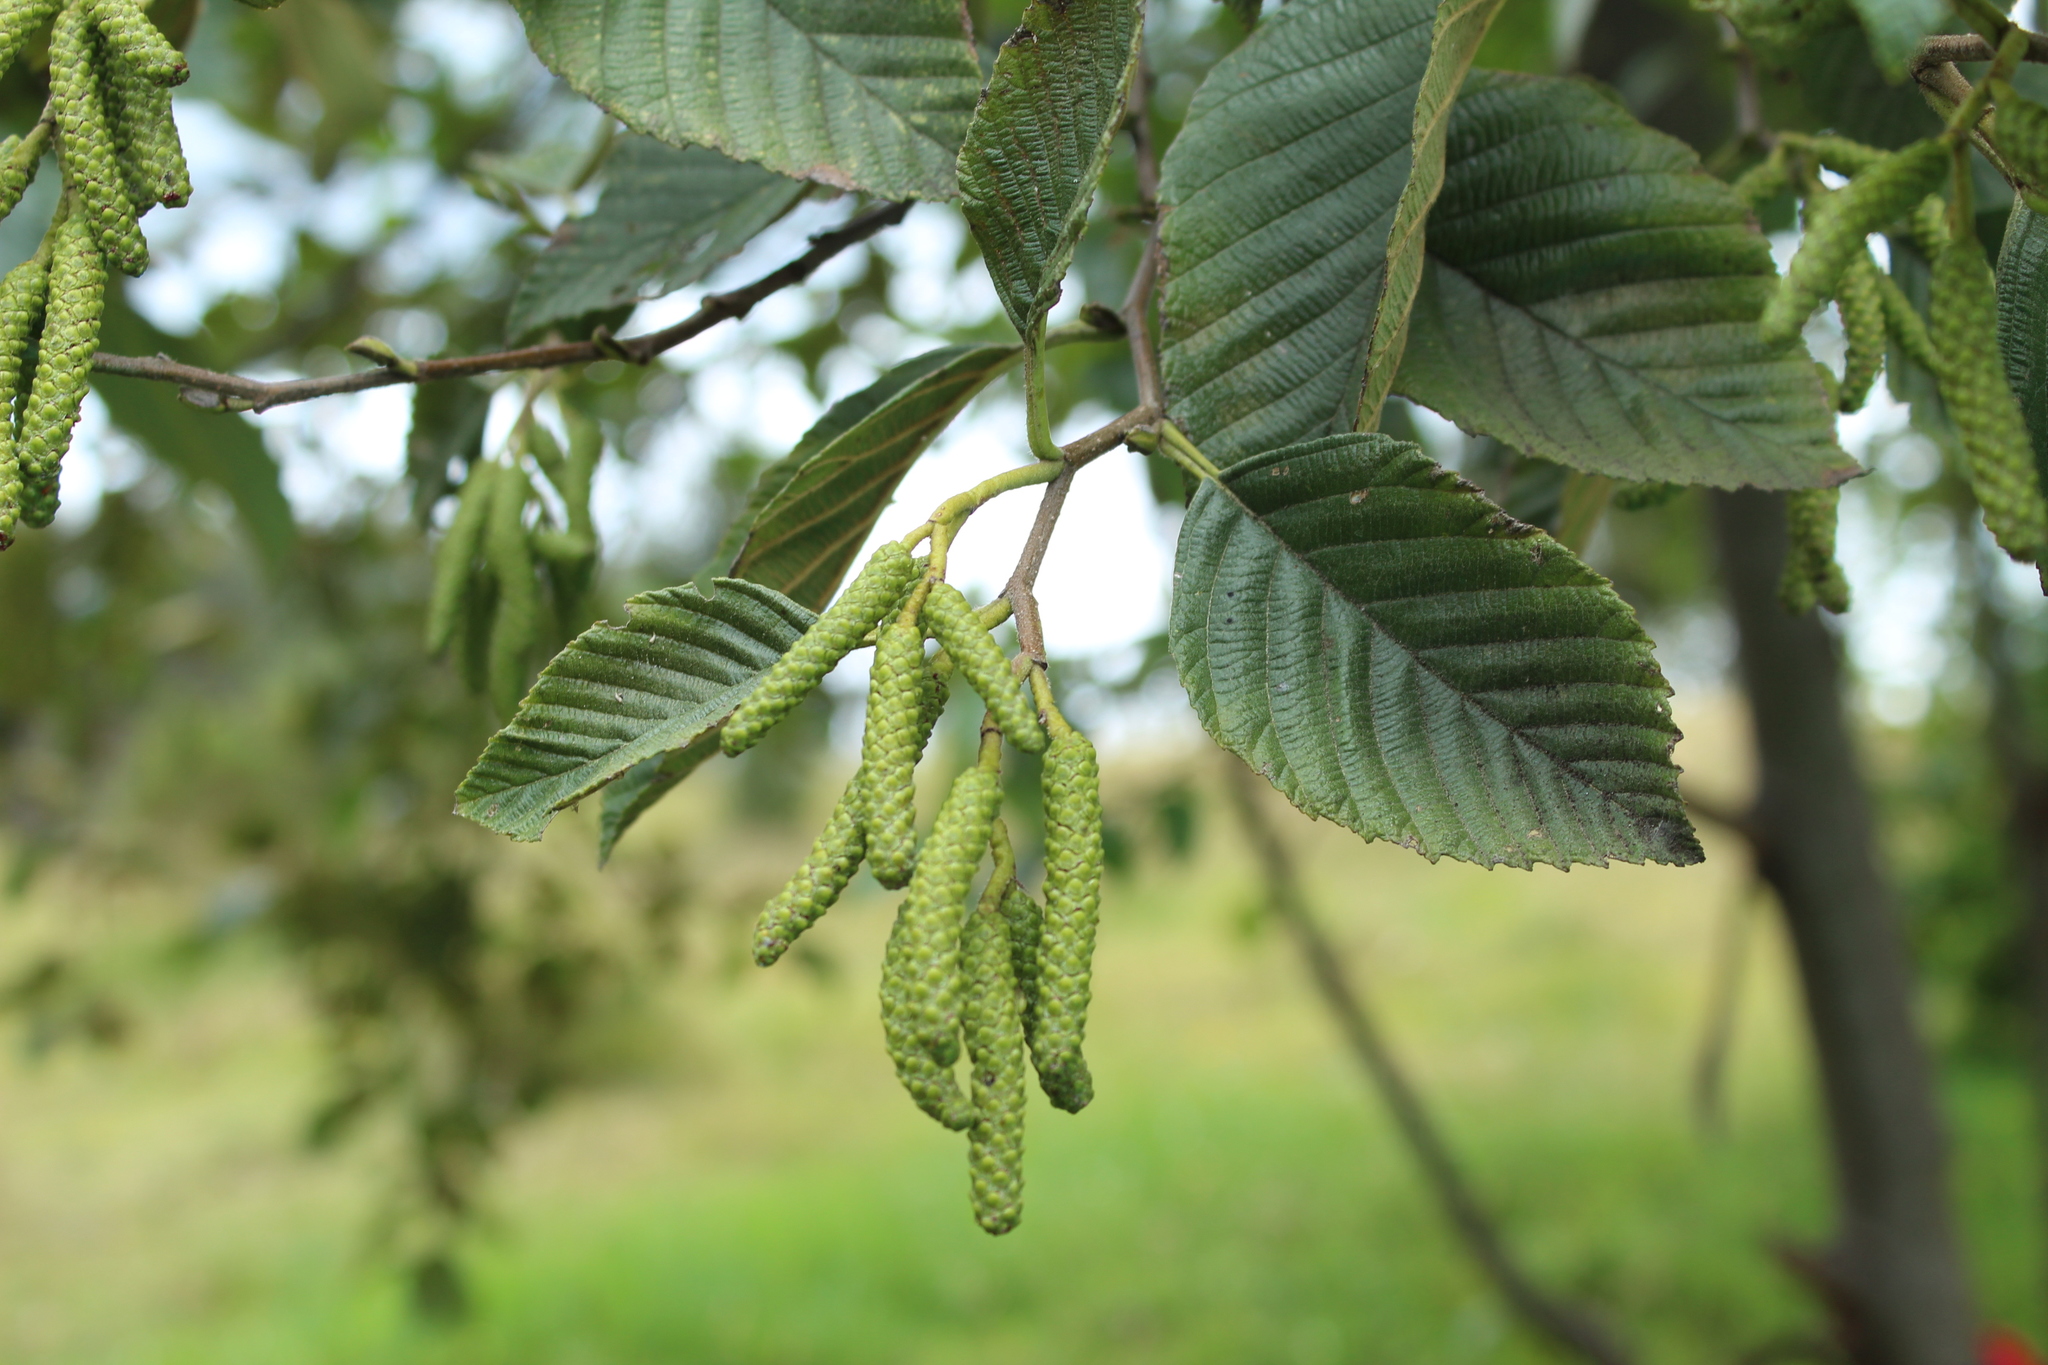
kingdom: Plantae
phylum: Tracheophyta
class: Magnoliopsida
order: Fagales
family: Betulaceae
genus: Alnus
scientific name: Alnus acuminata
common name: Alder
